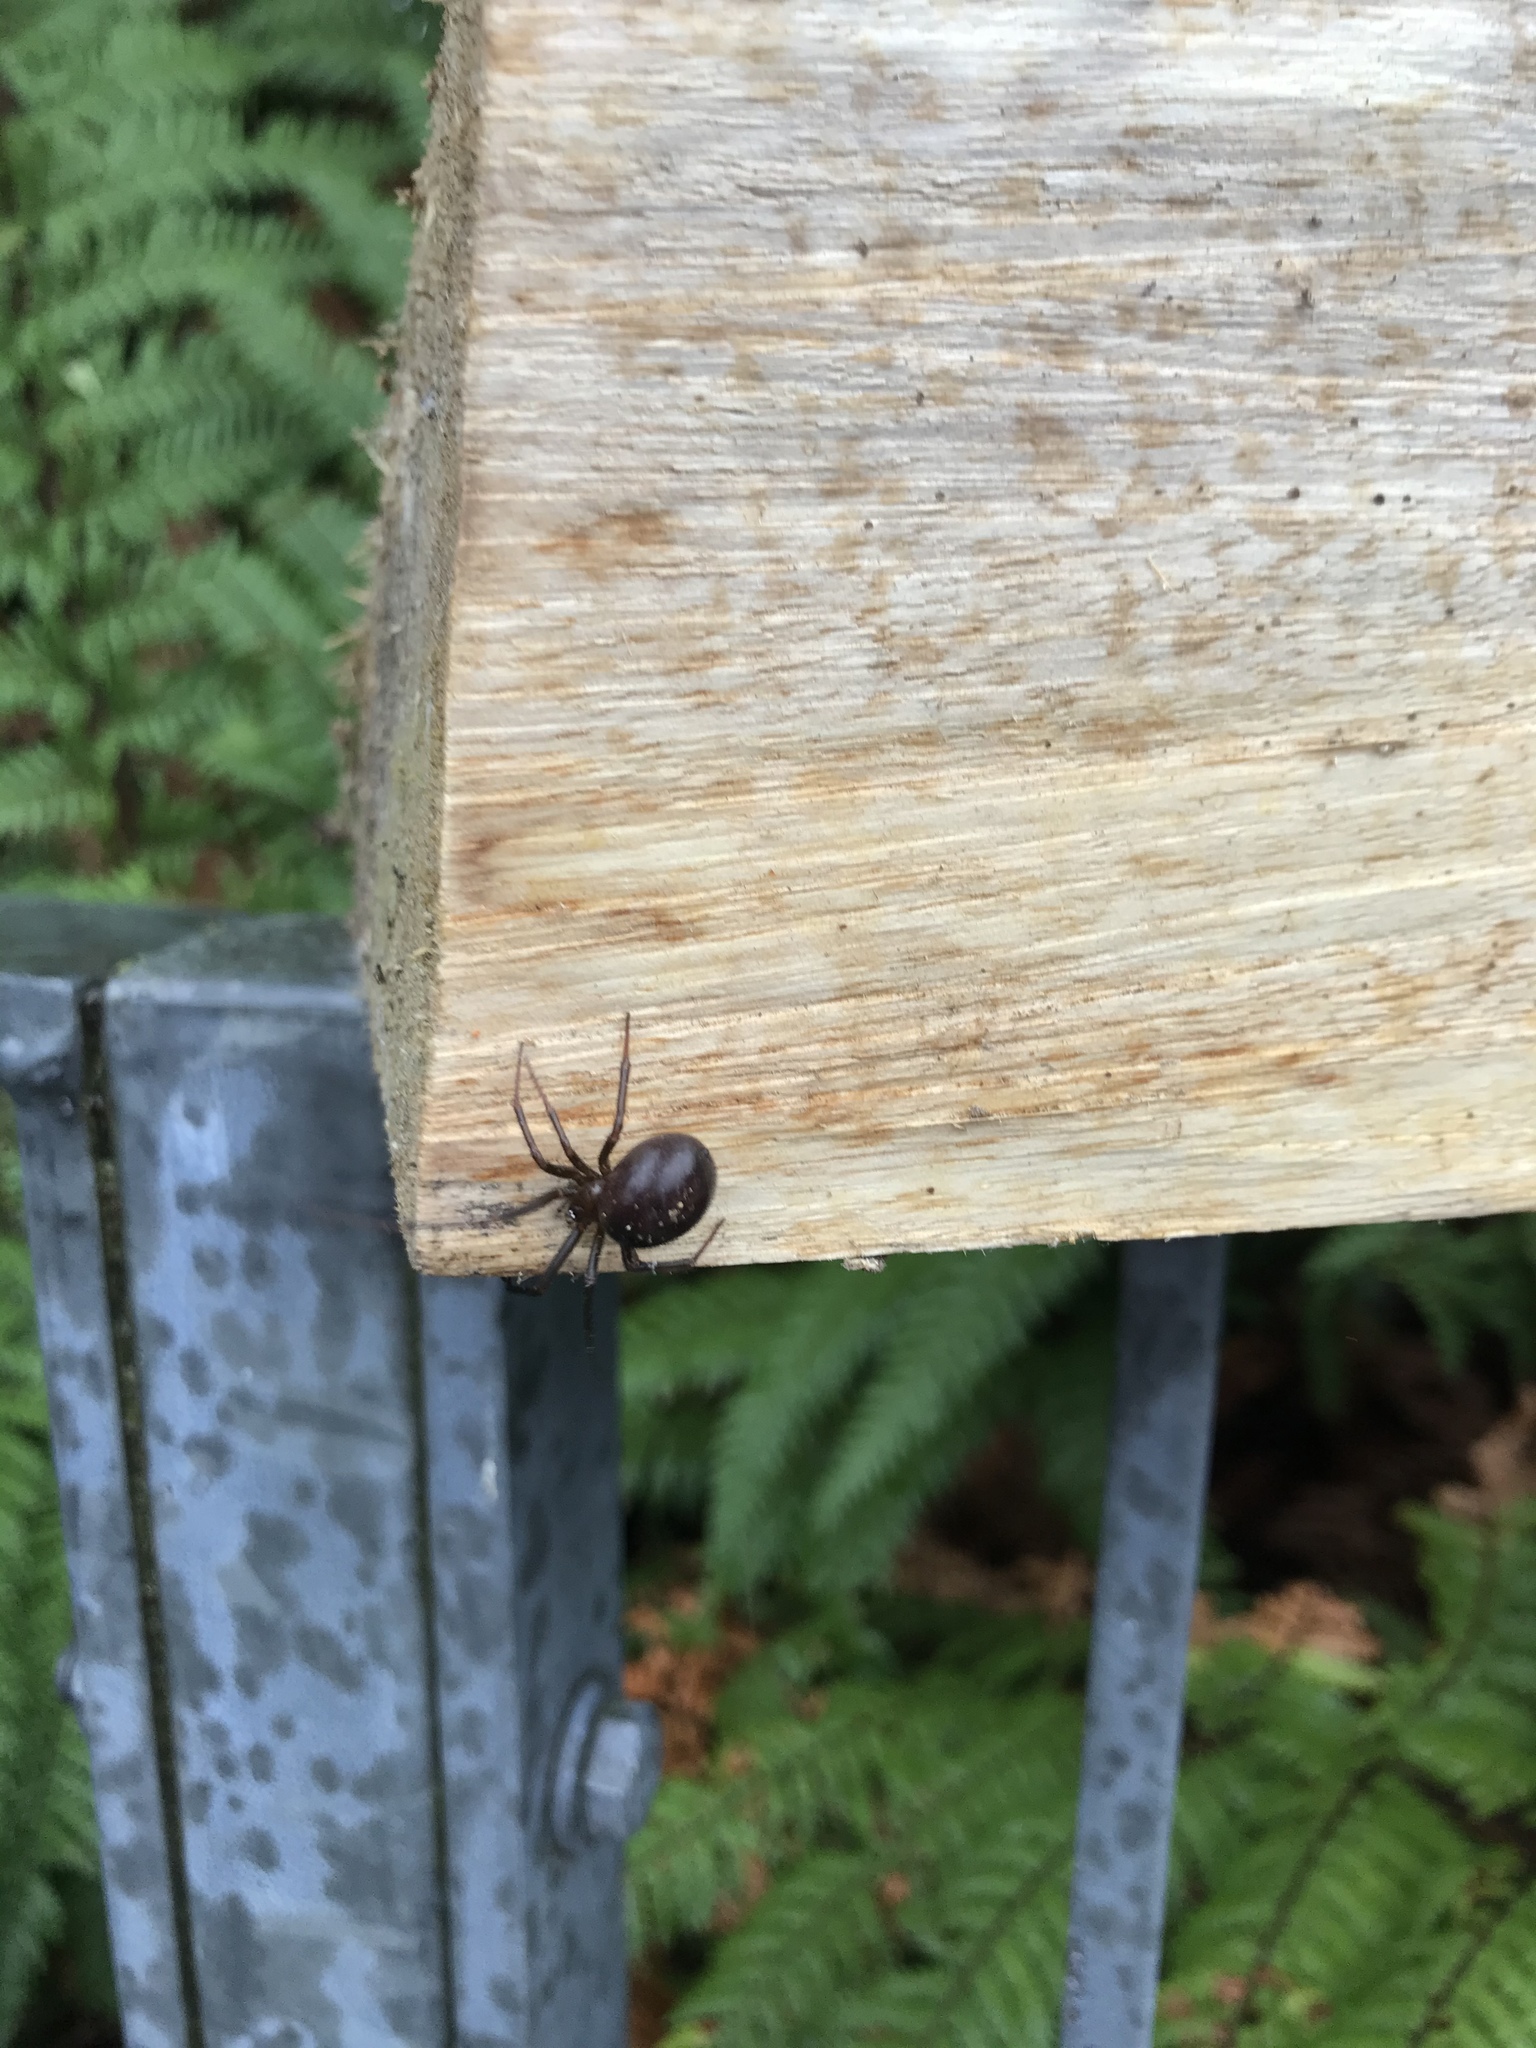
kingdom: Animalia
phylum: Arthropoda
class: Arachnida
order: Araneae
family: Theridiidae
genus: Steatoda
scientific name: Steatoda capensis
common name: Cobweb weaver
